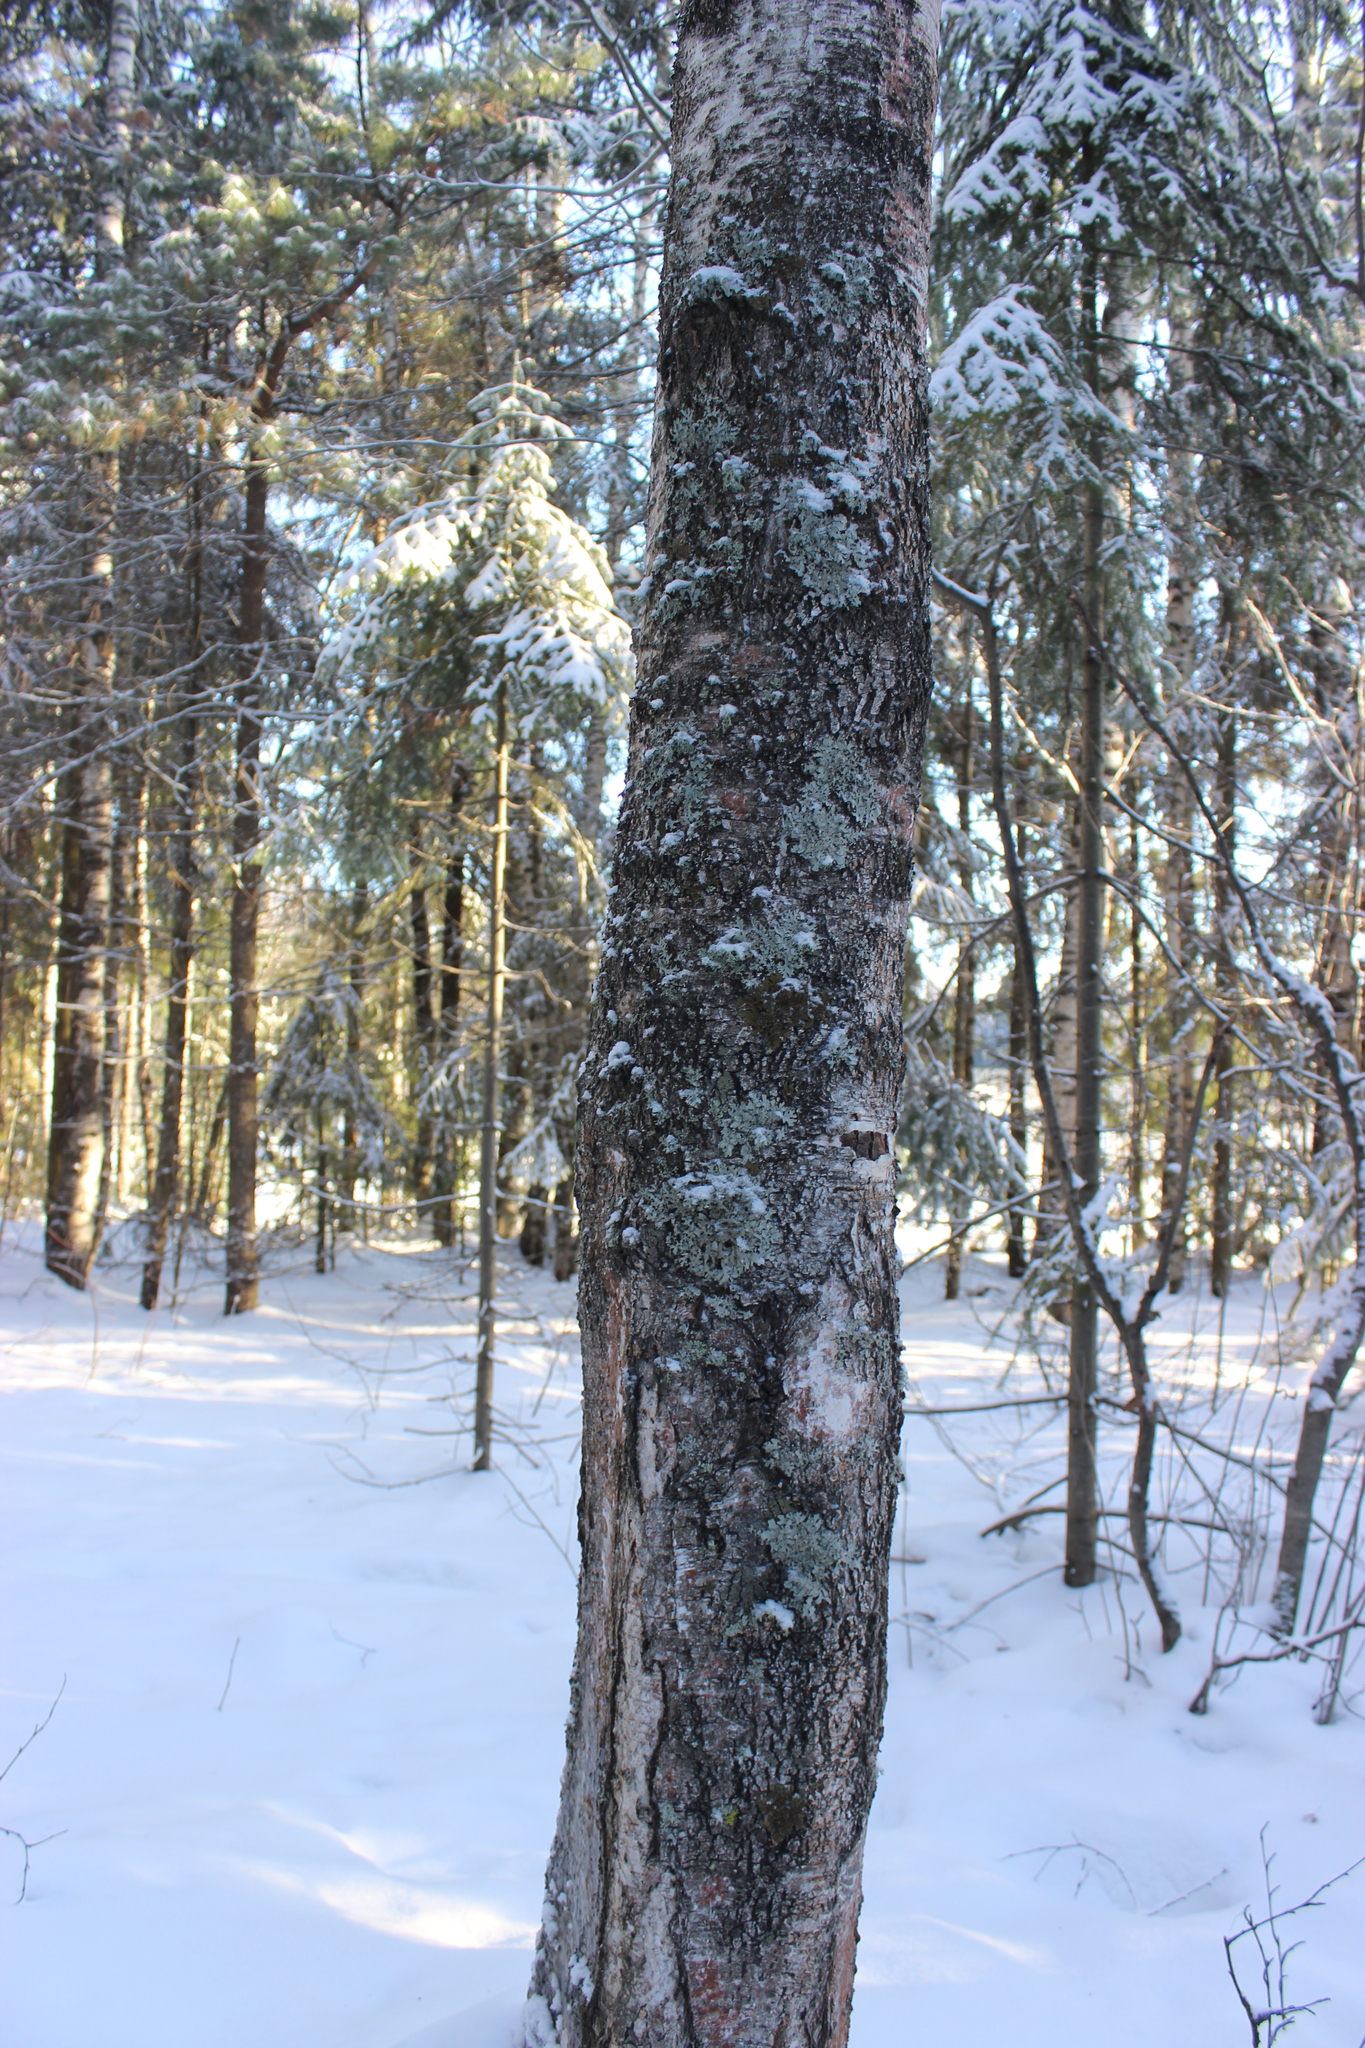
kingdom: Plantae
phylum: Tracheophyta
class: Magnoliopsida
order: Fagales
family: Betulaceae
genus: Betula
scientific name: Betula pubescens
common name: Downy birch
